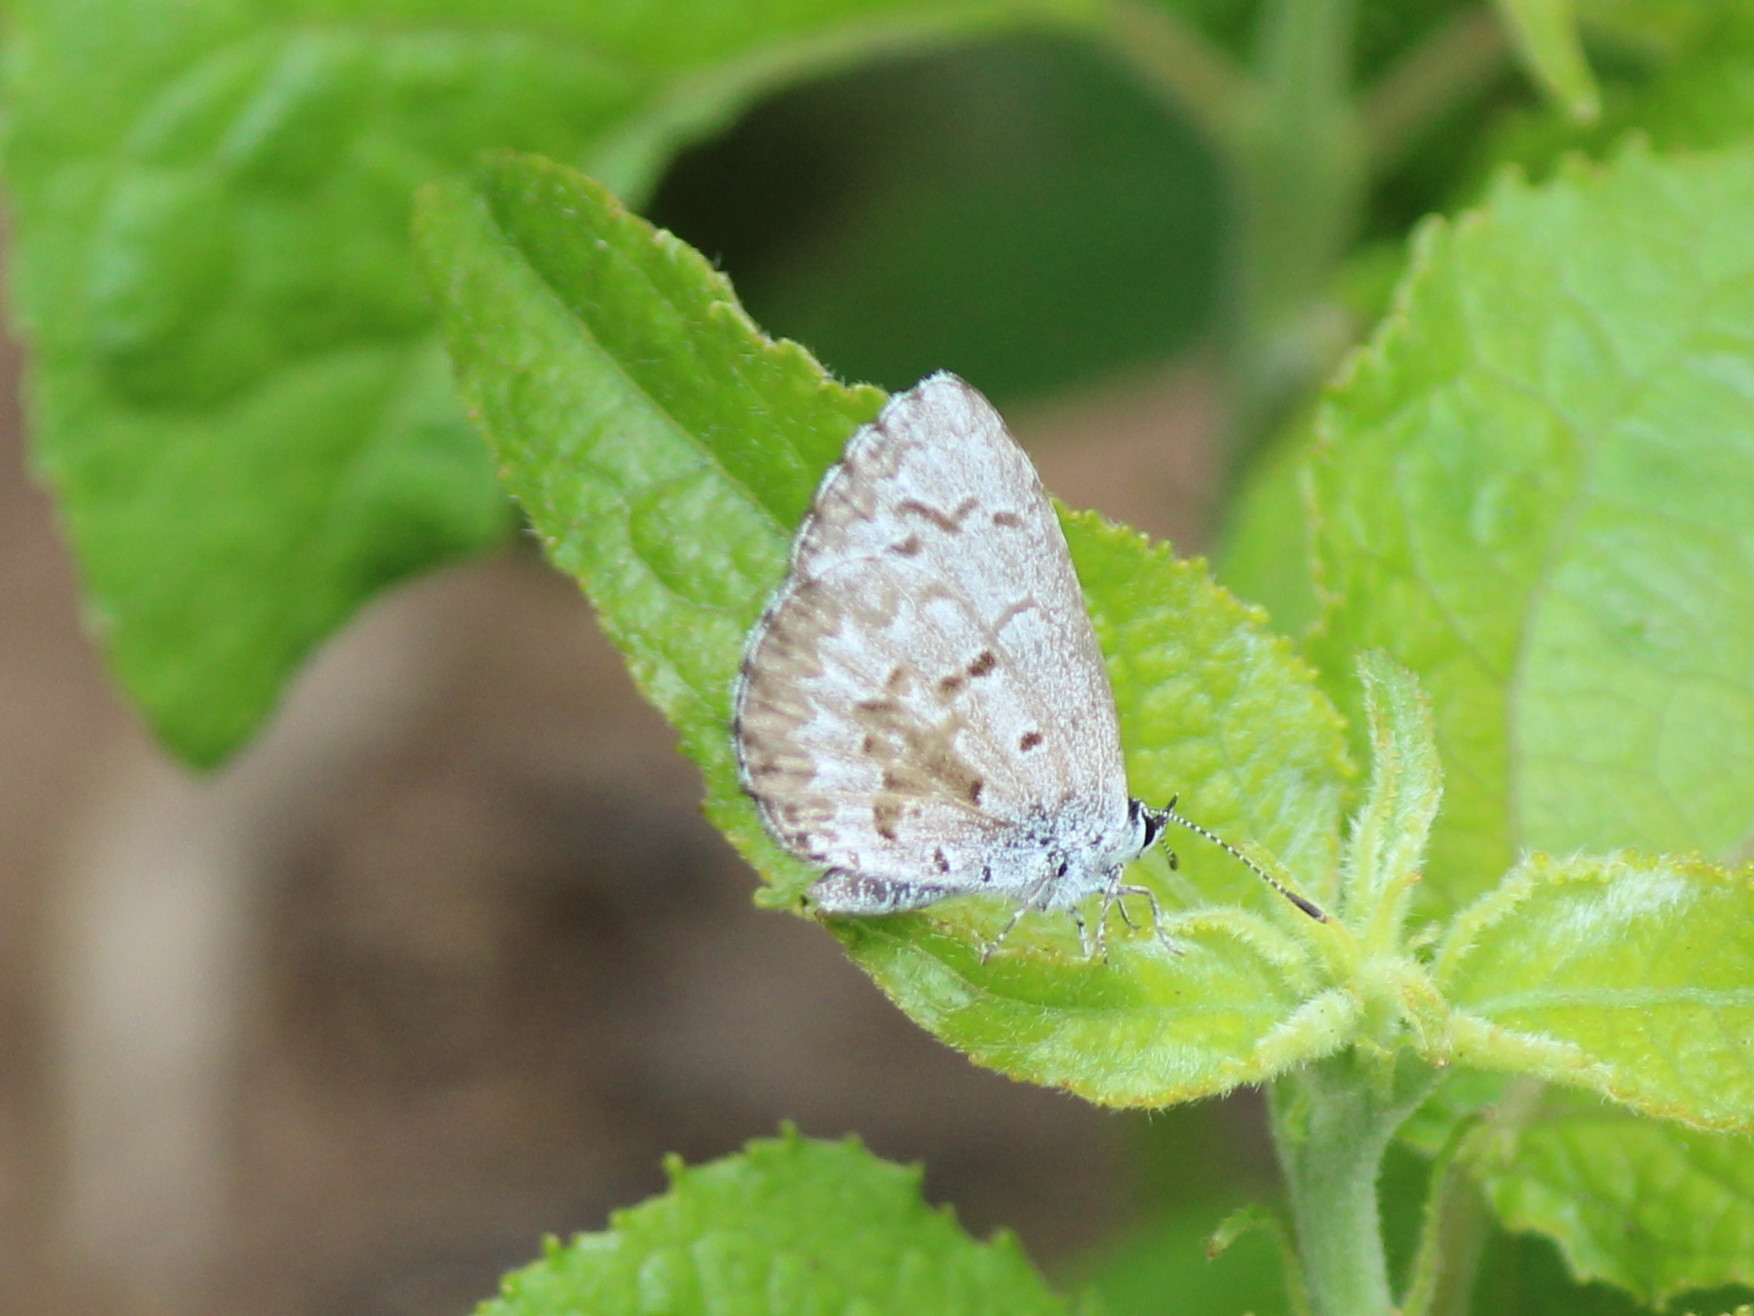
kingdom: Animalia
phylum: Arthropoda
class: Insecta
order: Lepidoptera
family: Lycaenidae
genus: Celastrina
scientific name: Celastrina lucia
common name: Lucia azure
